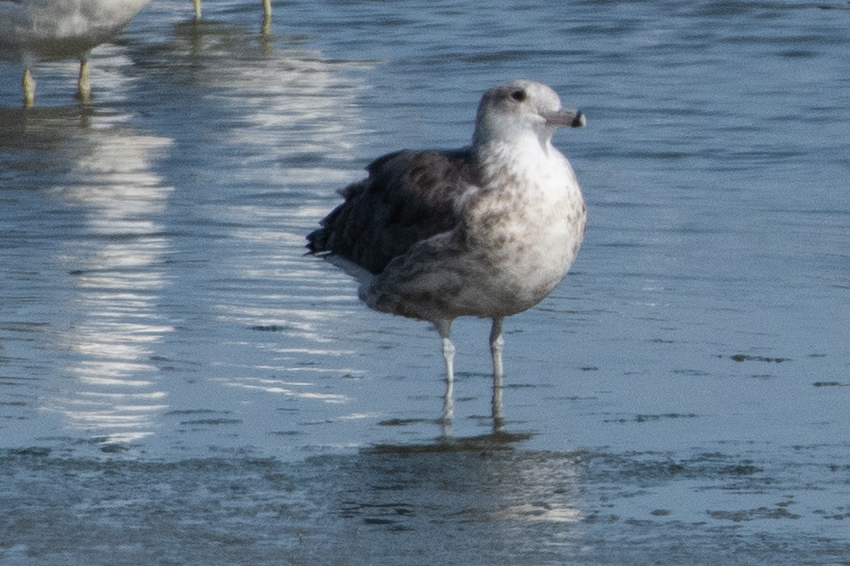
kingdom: Animalia
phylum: Chordata
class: Aves
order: Charadriiformes
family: Laridae
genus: Larus
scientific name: Larus californicus
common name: California gull
